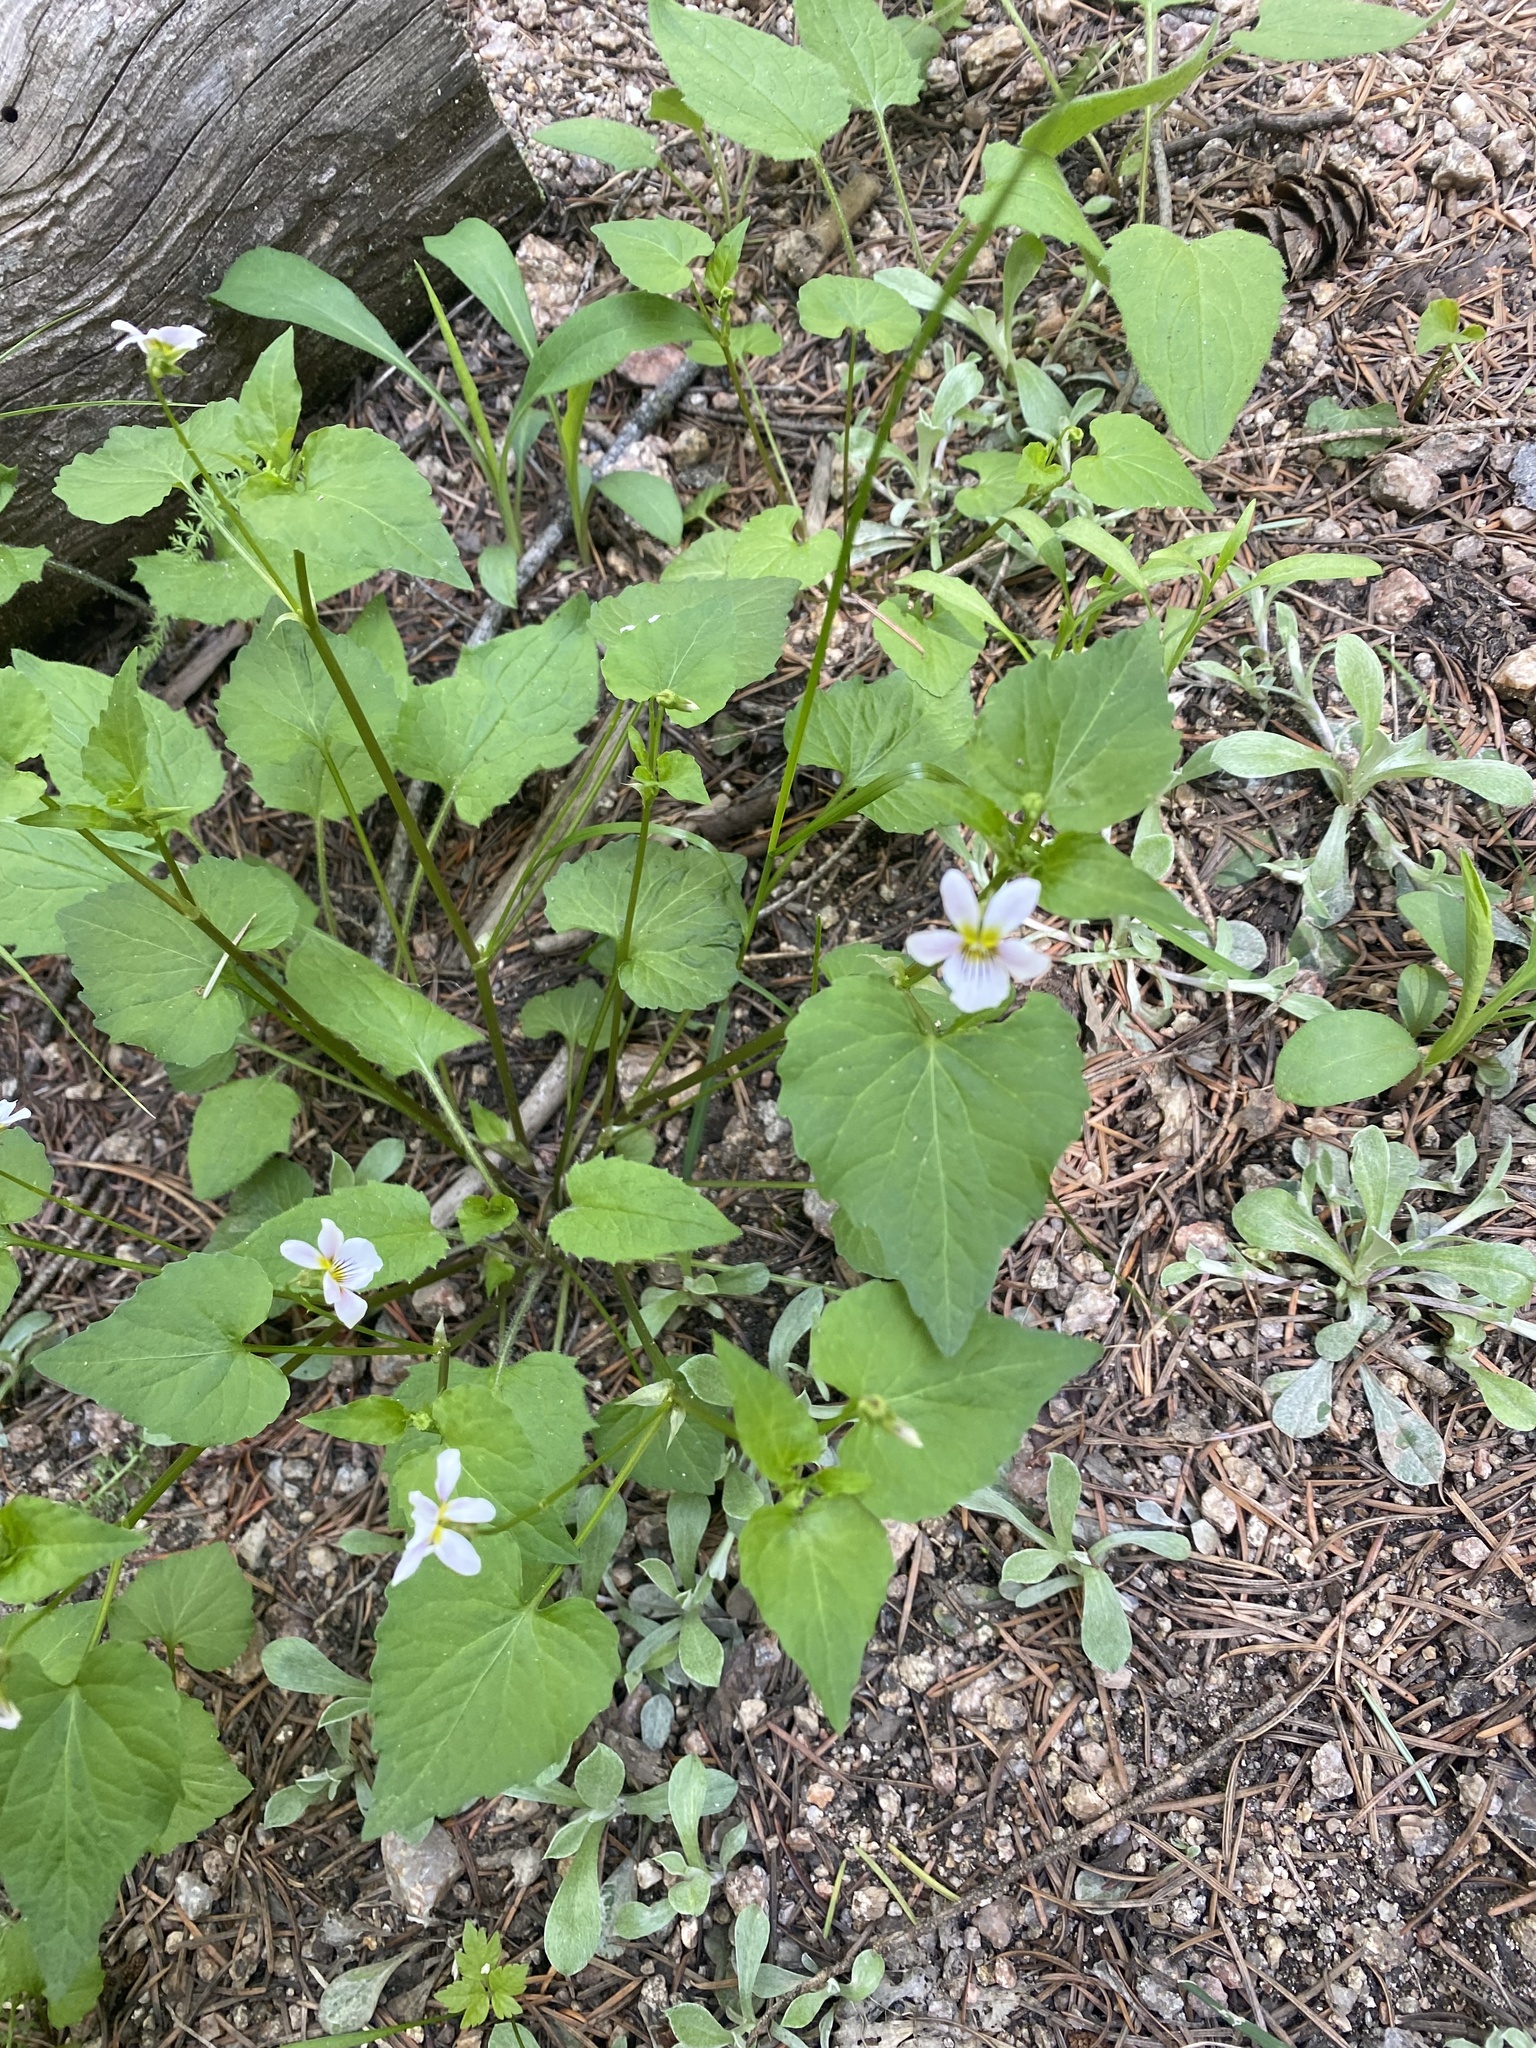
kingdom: Plantae
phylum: Tracheophyta
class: Magnoliopsida
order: Malpighiales
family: Violaceae
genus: Viola
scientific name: Viola canadensis
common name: Canada violet
